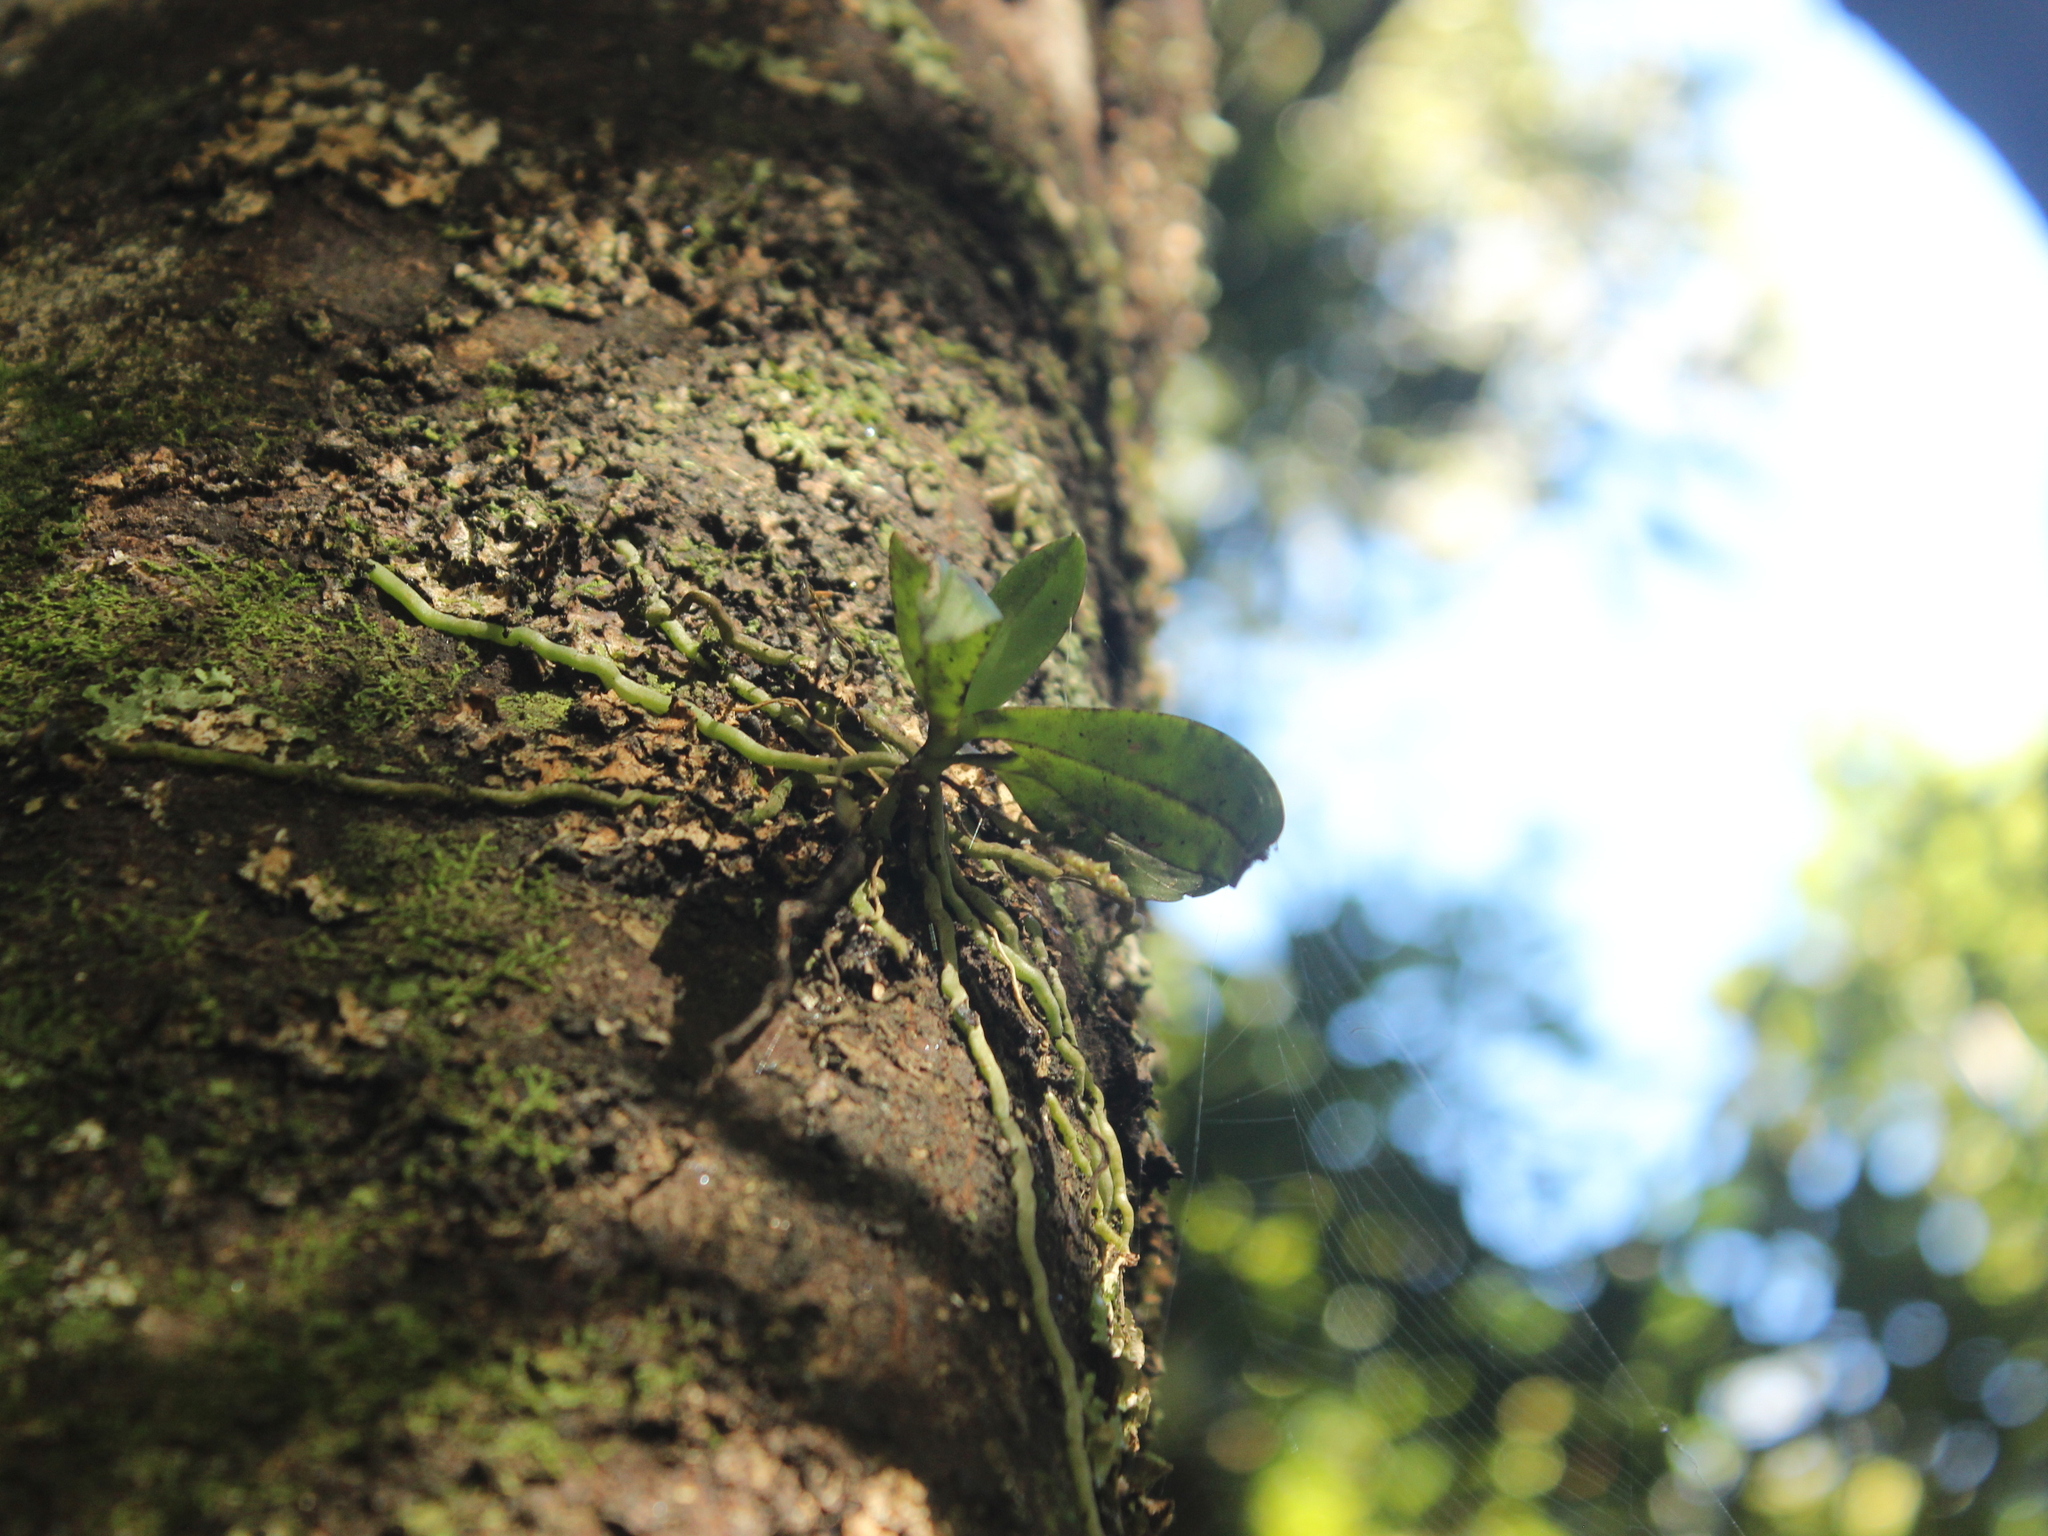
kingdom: Plantae
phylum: Tracheophyta
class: Liliopsida
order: Asparagales
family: Orchidaceae
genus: Drymoanthus
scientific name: Drymoanthus adversus
